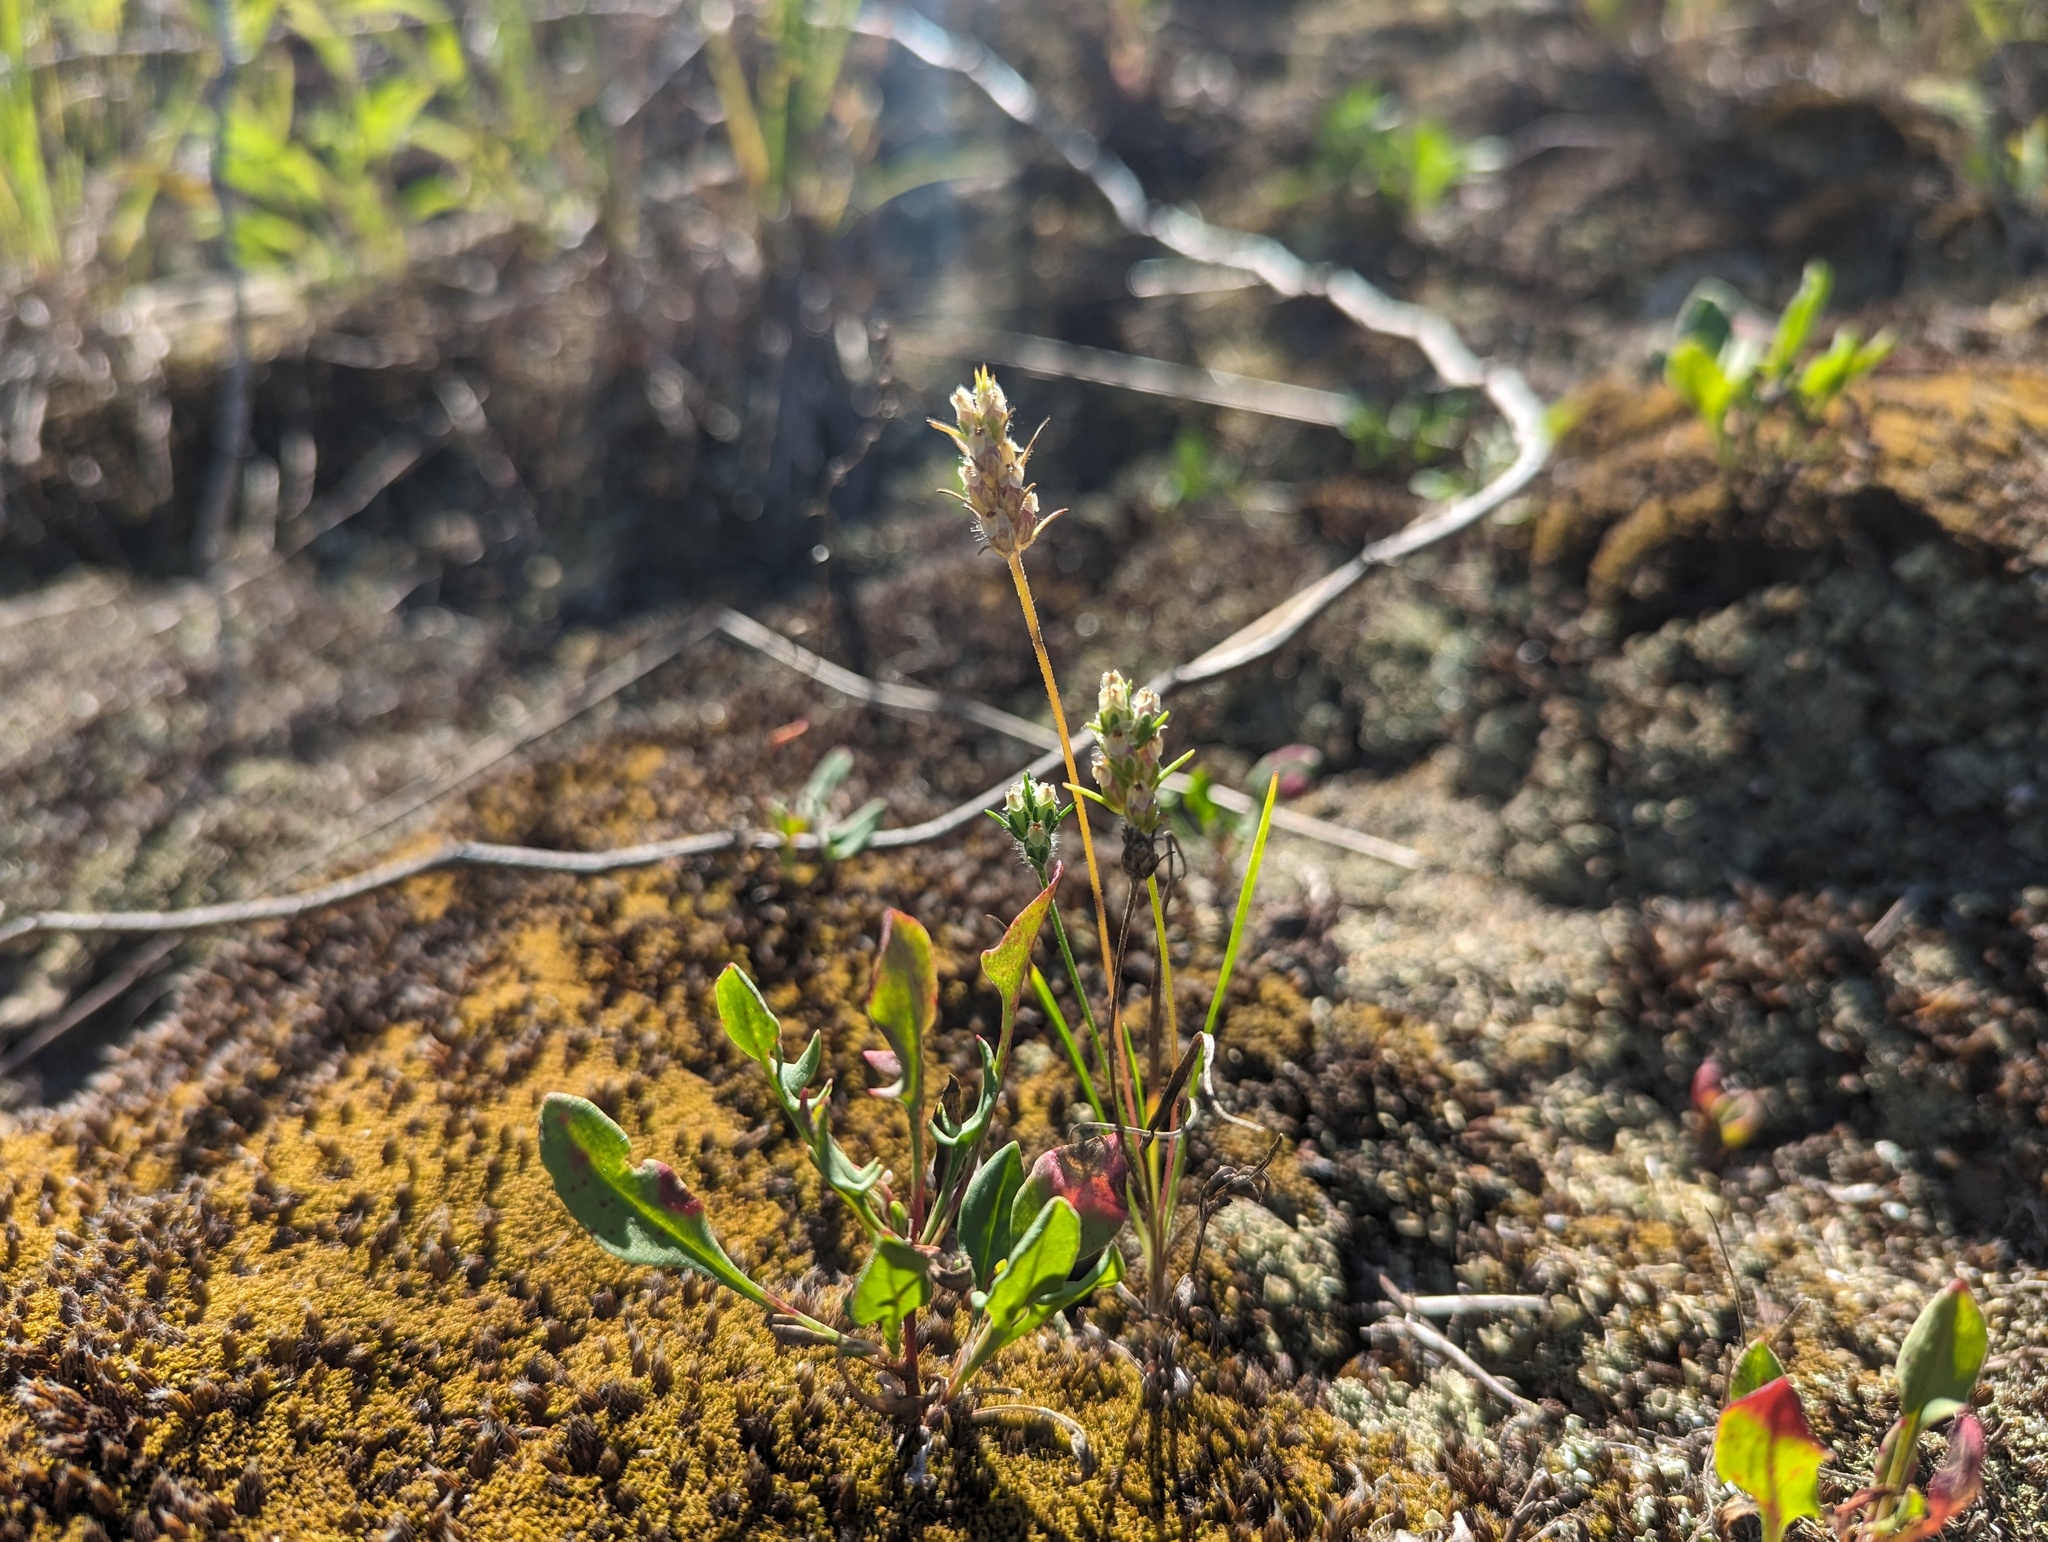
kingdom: Plantae
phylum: Tracheophyta
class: Magnoliopsida
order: Lamiales
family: Plantaginaceae
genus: Plantago
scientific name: Plantago aristata
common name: Bracted plantain
